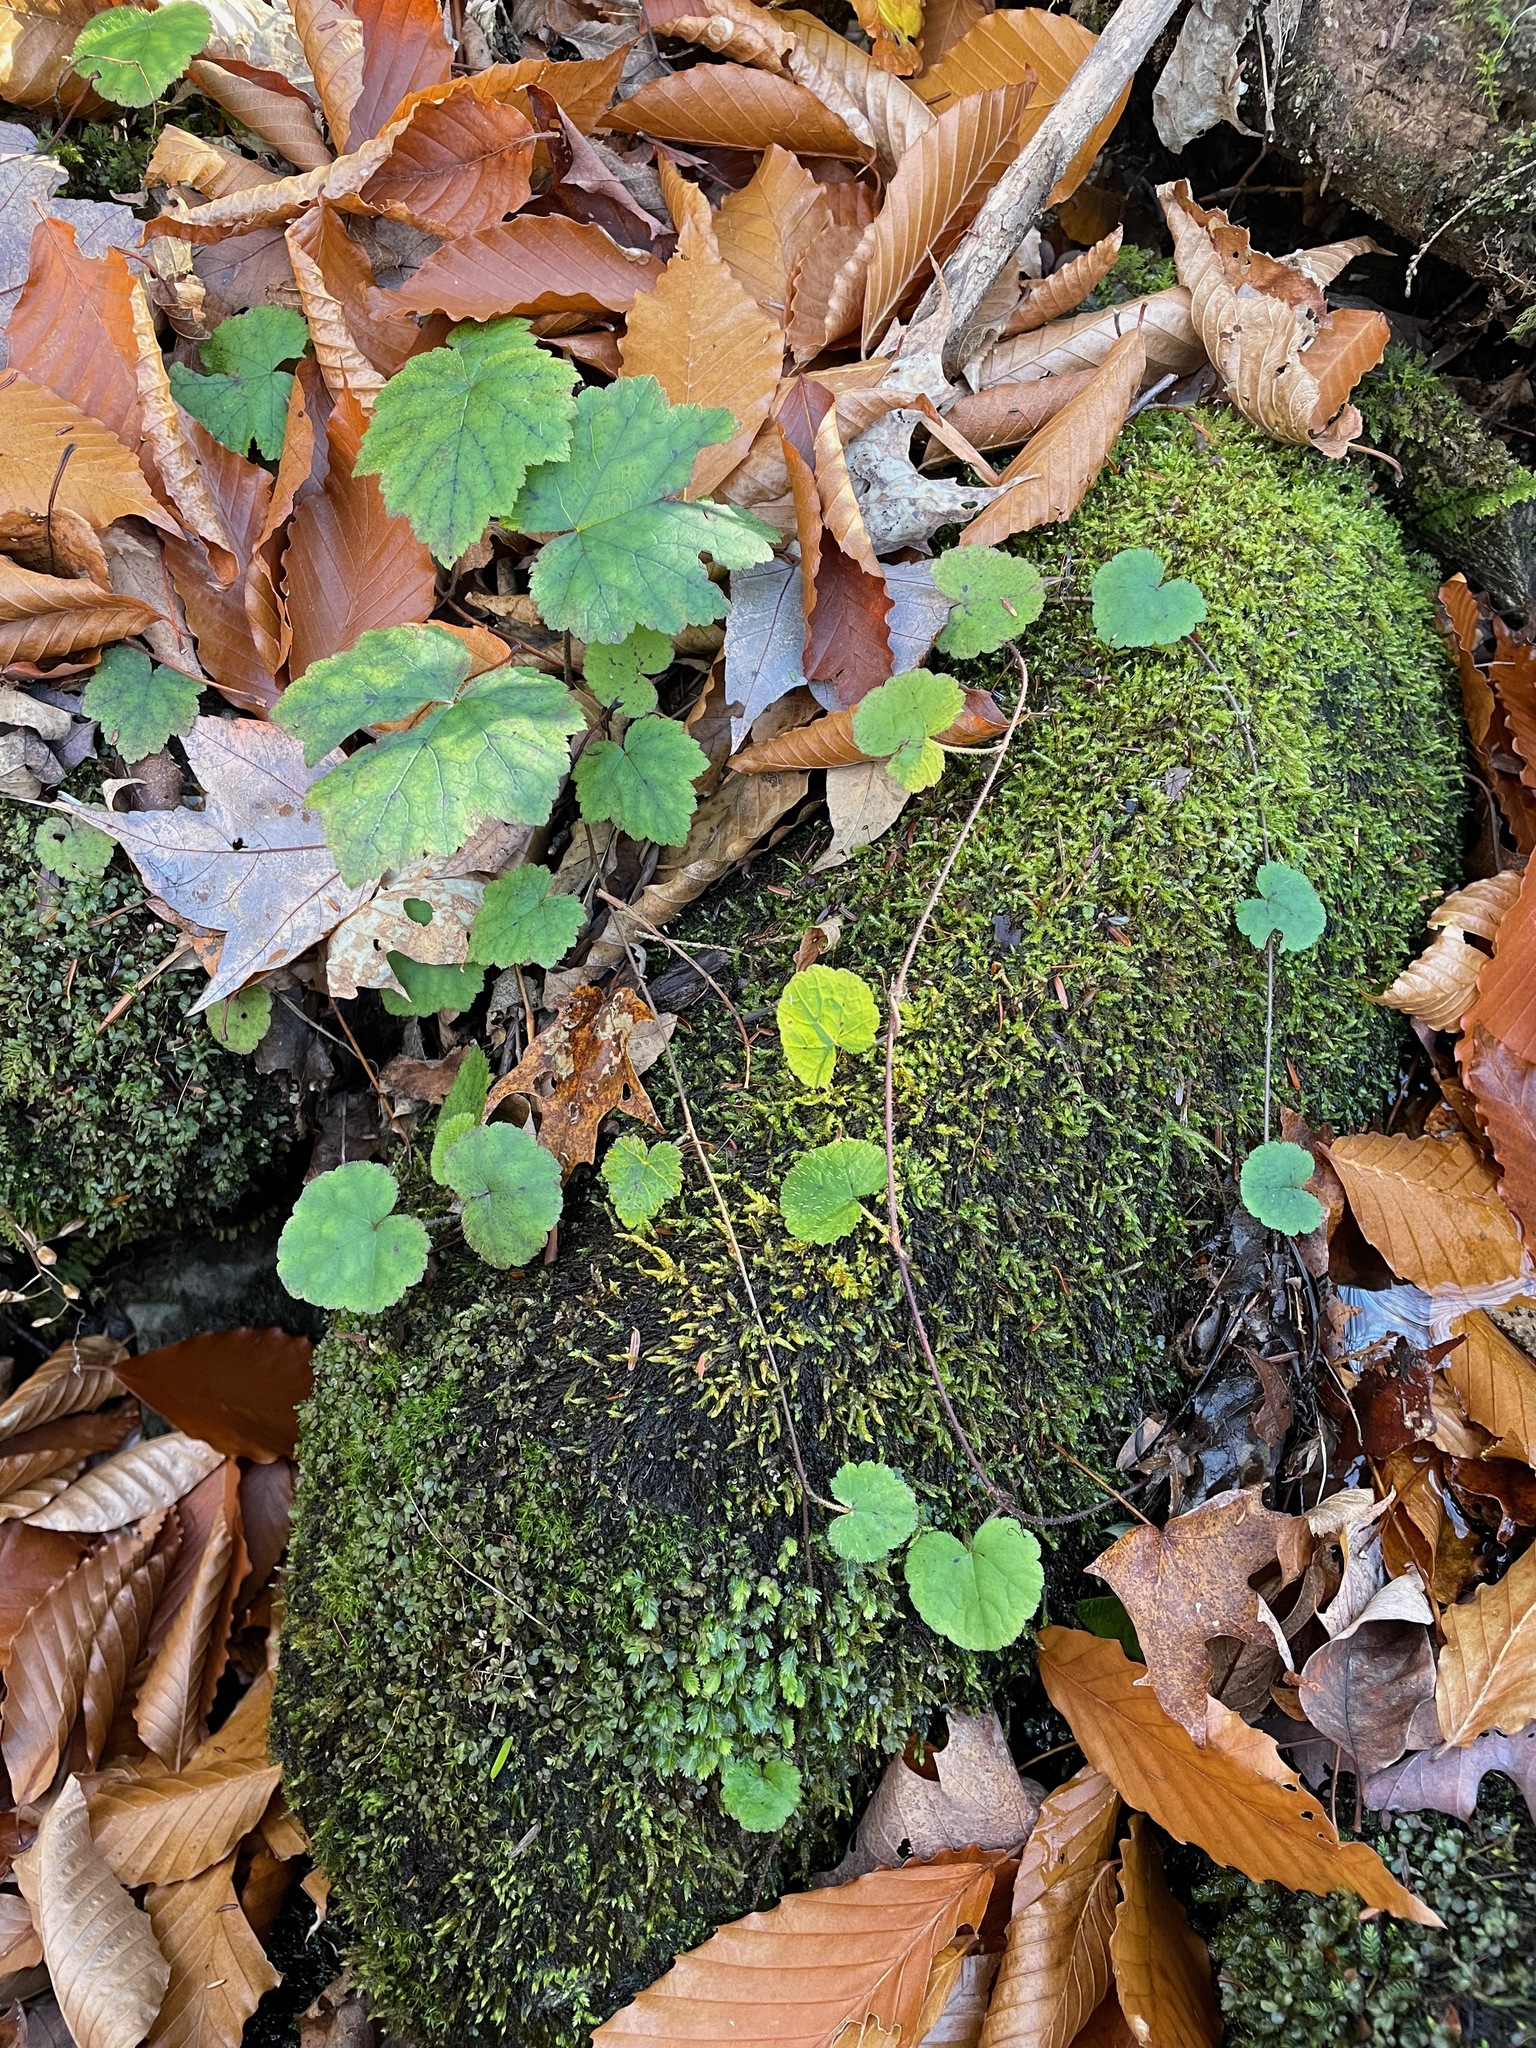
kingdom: Plantae
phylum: Tracheophyta
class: Magnoliopsida
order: Saxifragales
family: Saxifragaceae
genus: Tiarella
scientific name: Tiarella stolonifera
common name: Stoloniferous foamflower
